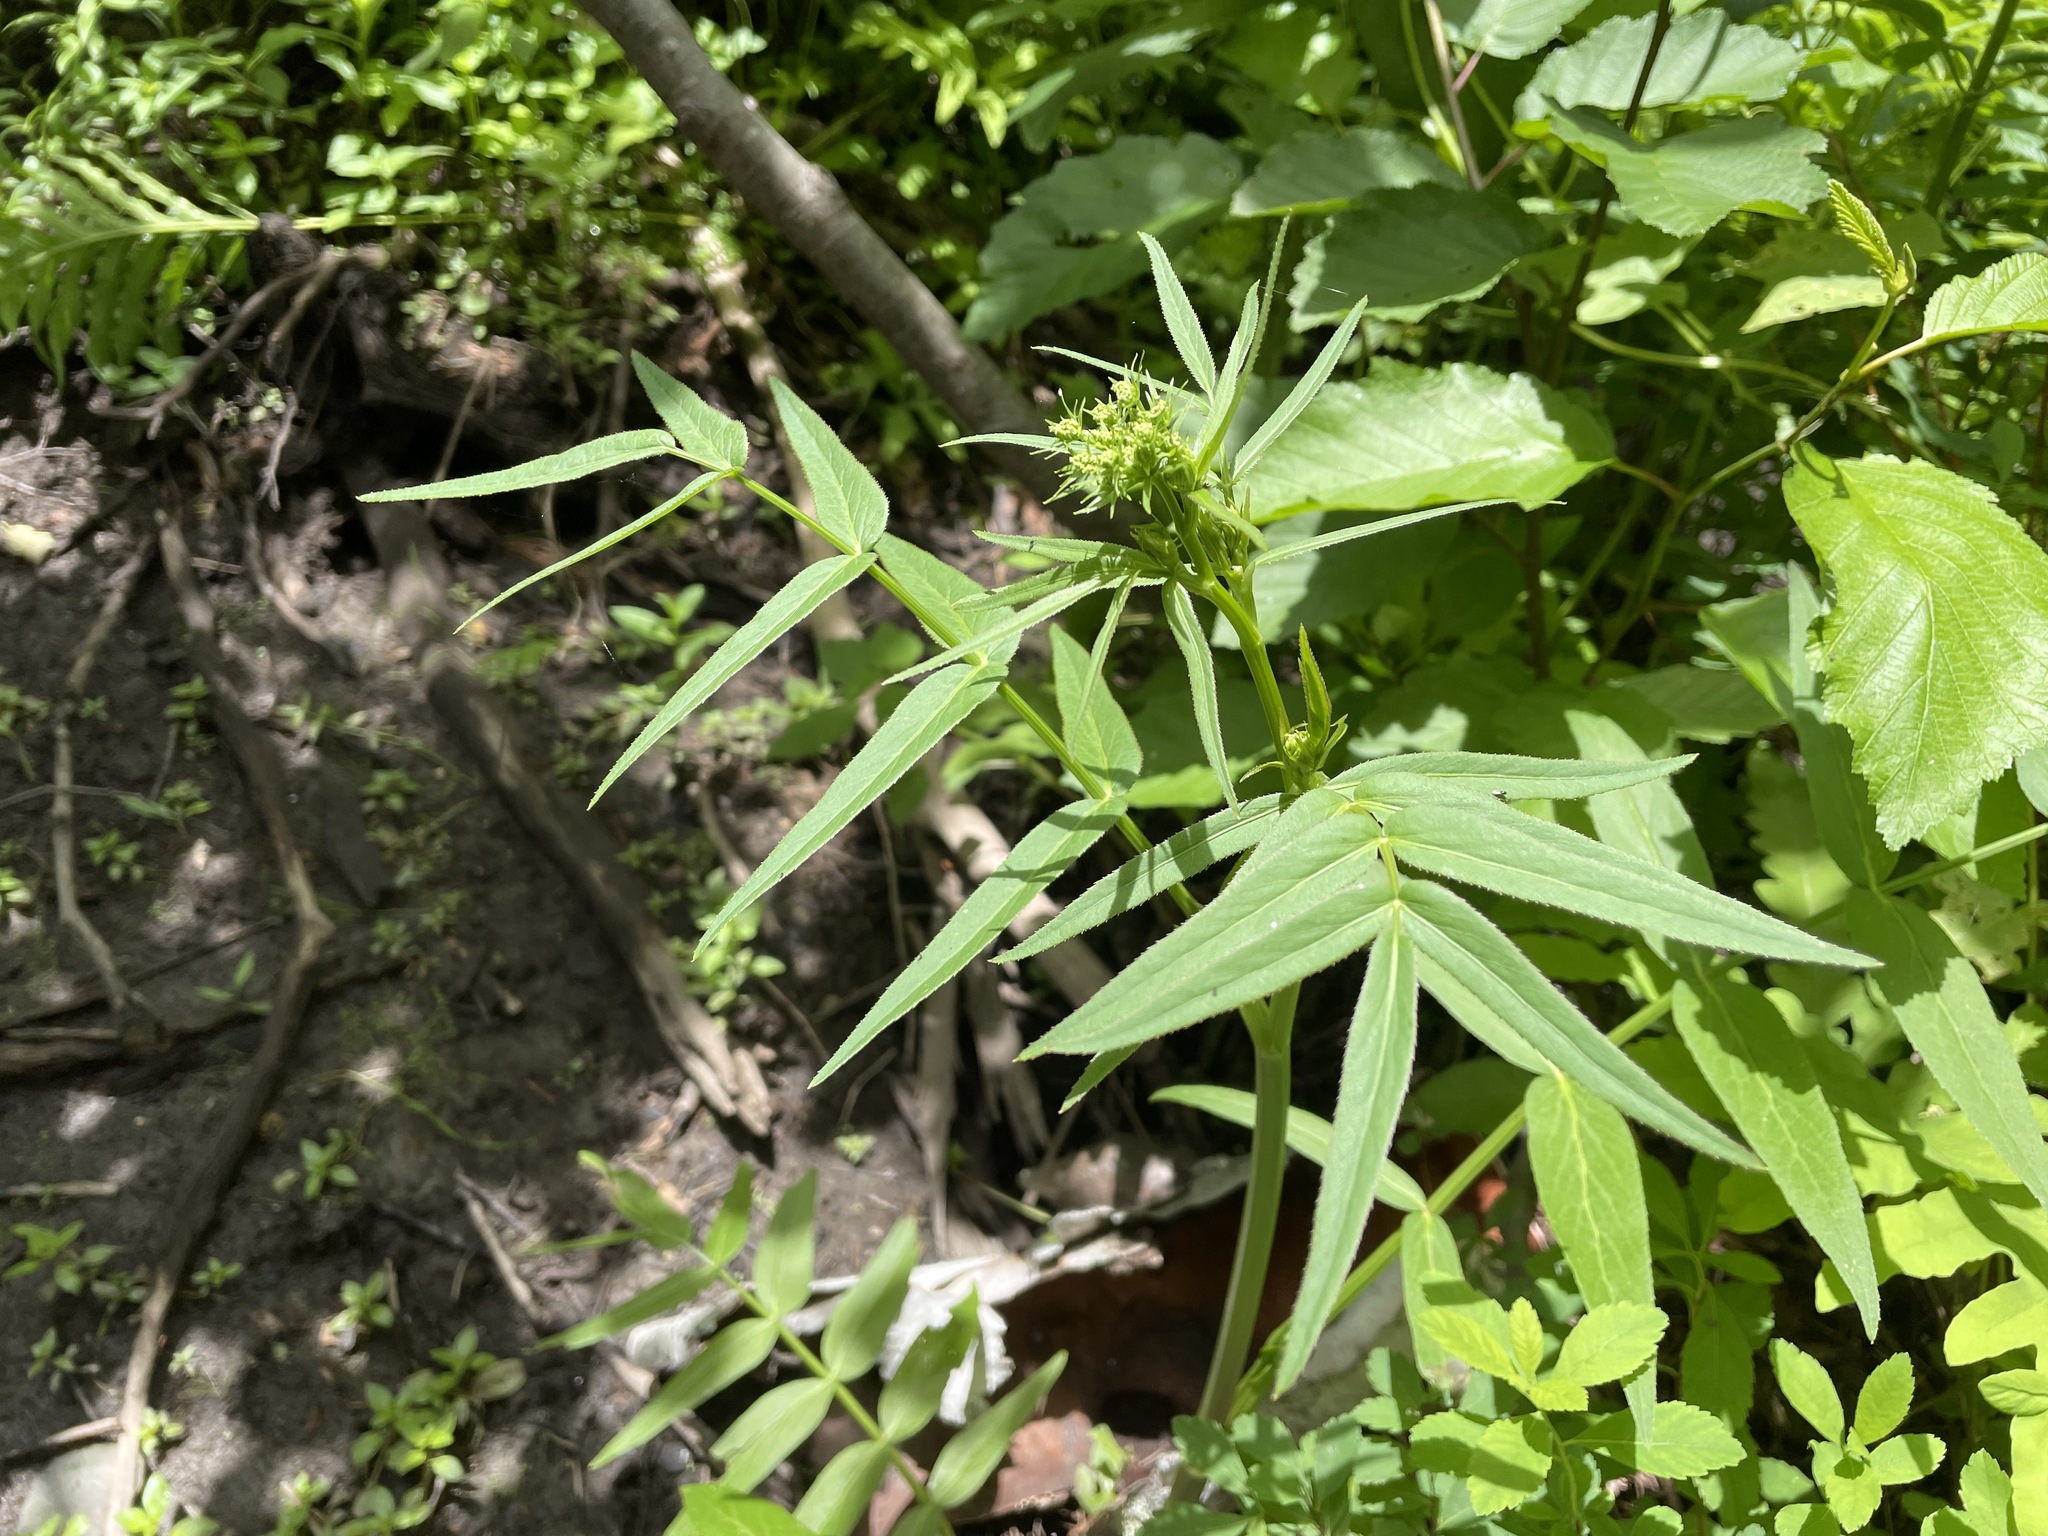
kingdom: Plantae
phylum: Tracheophyta
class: Magnoliopsida
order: Apiales
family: Apiaceae
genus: Sium
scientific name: Sium suave
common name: Hemlock water-parsnip
